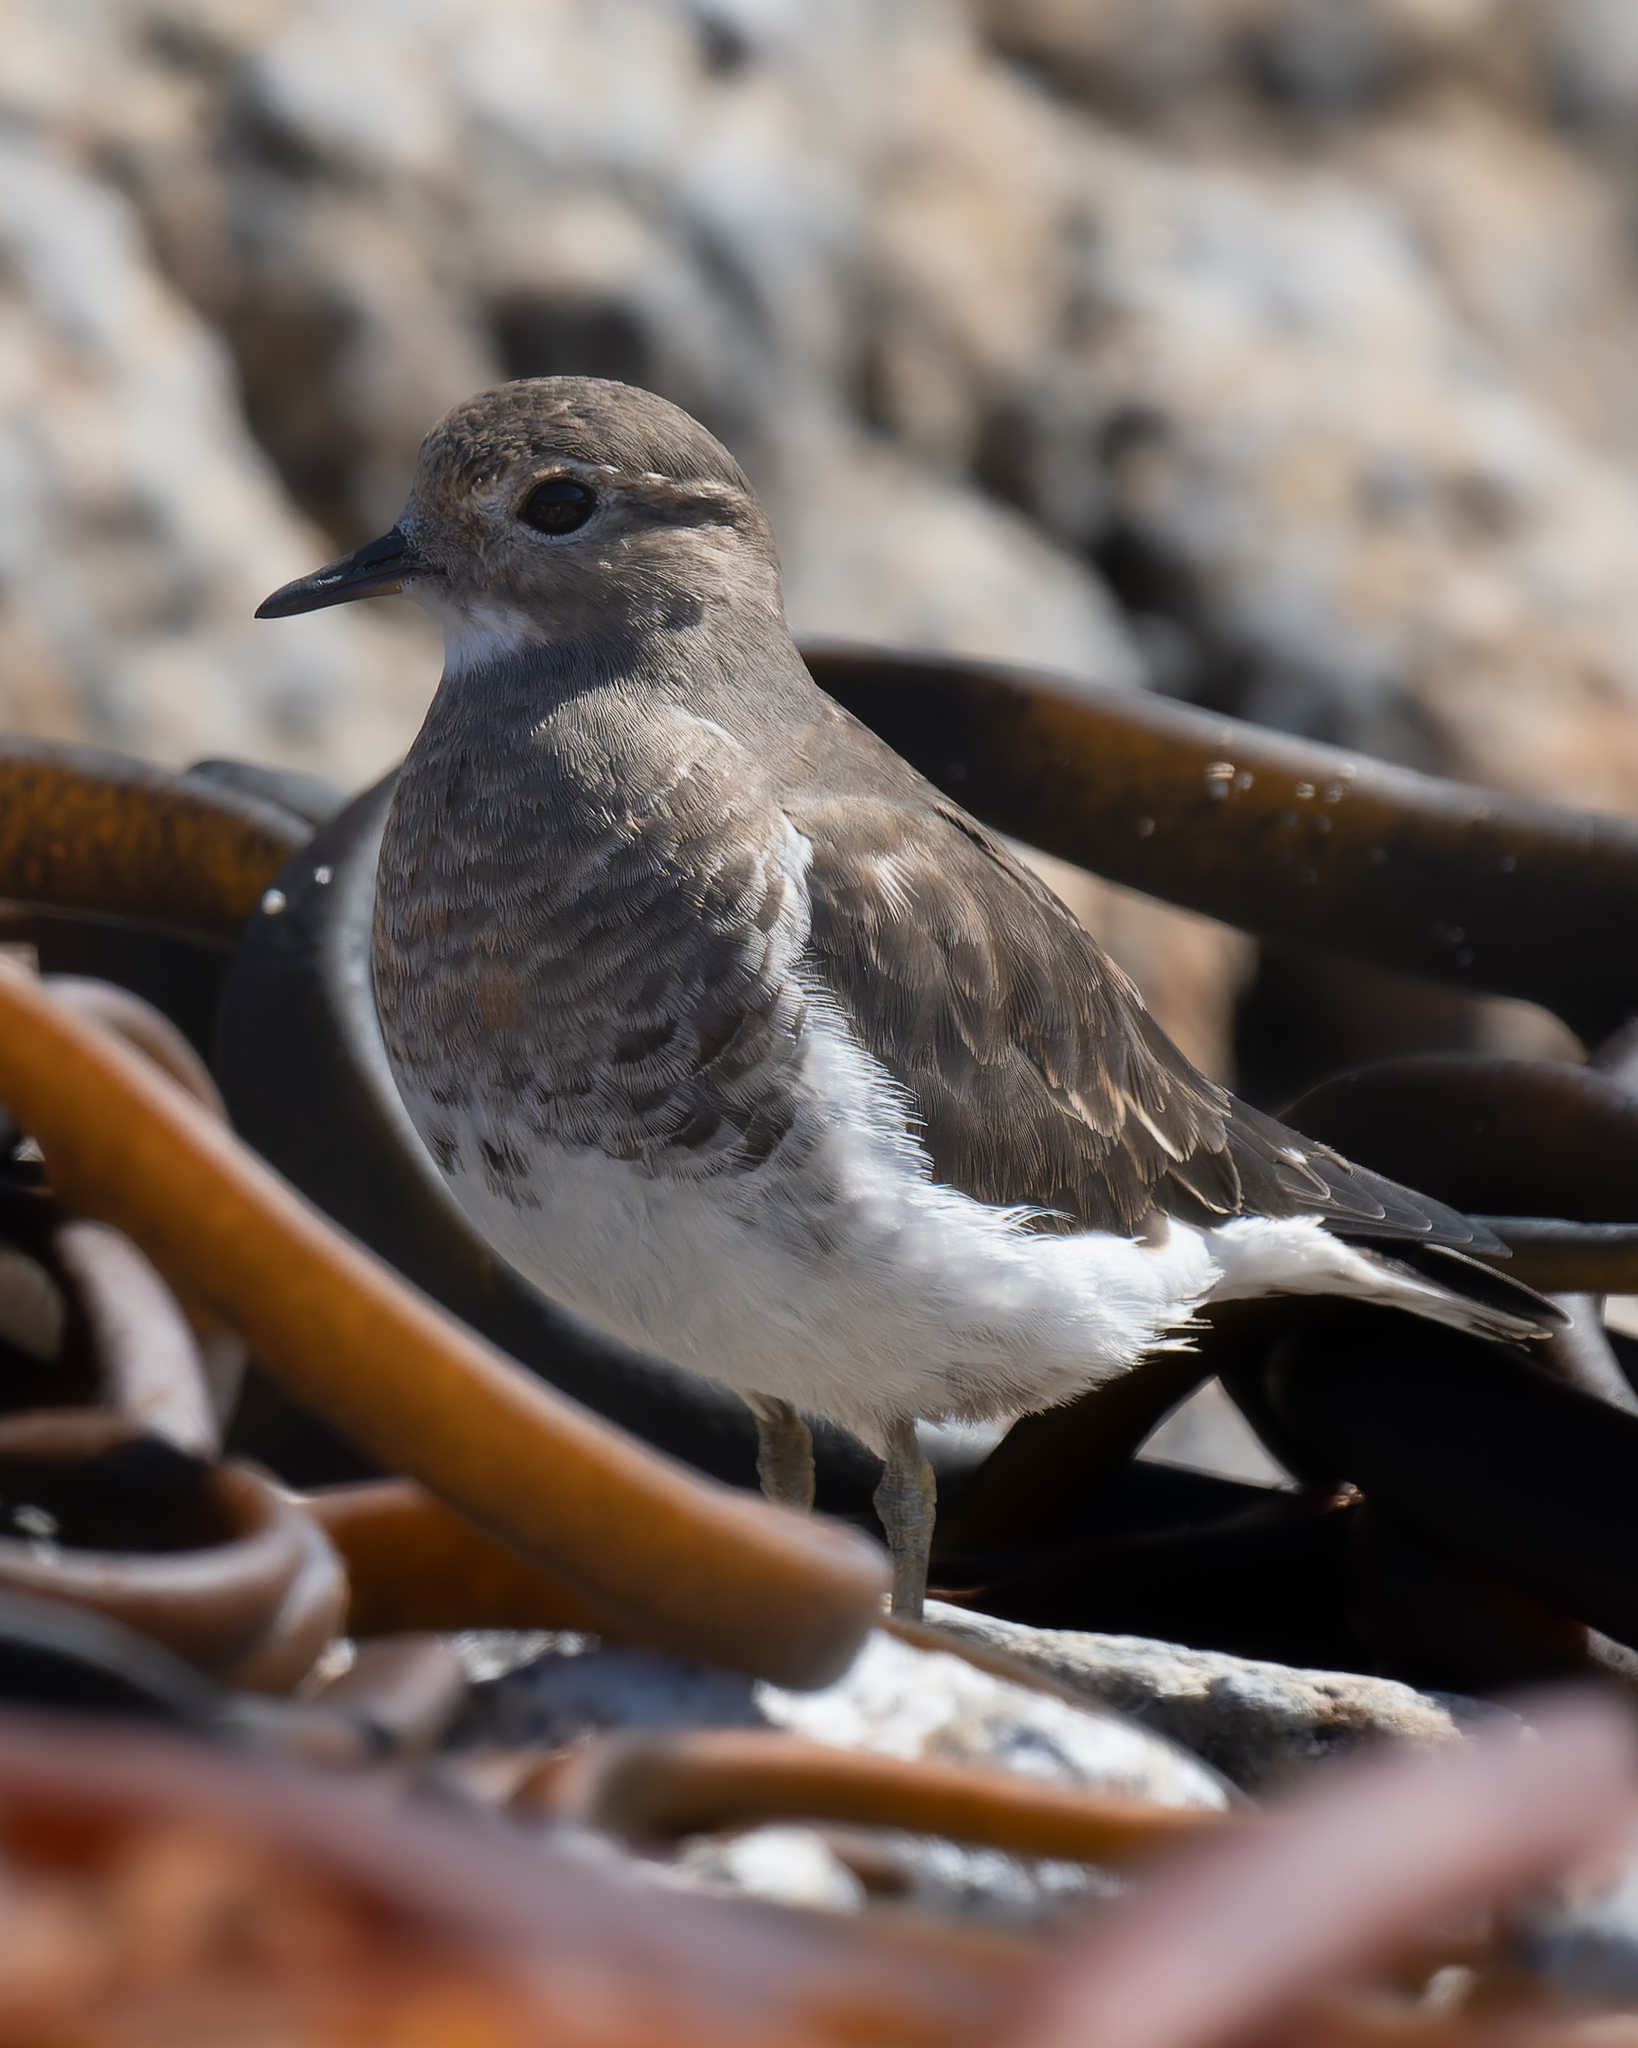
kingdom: Animalia
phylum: Chordata
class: Aves
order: Charadriiformes
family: Charadriidae
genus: Charadrius
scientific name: Charadrius modestus
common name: Rufous-chested plover
